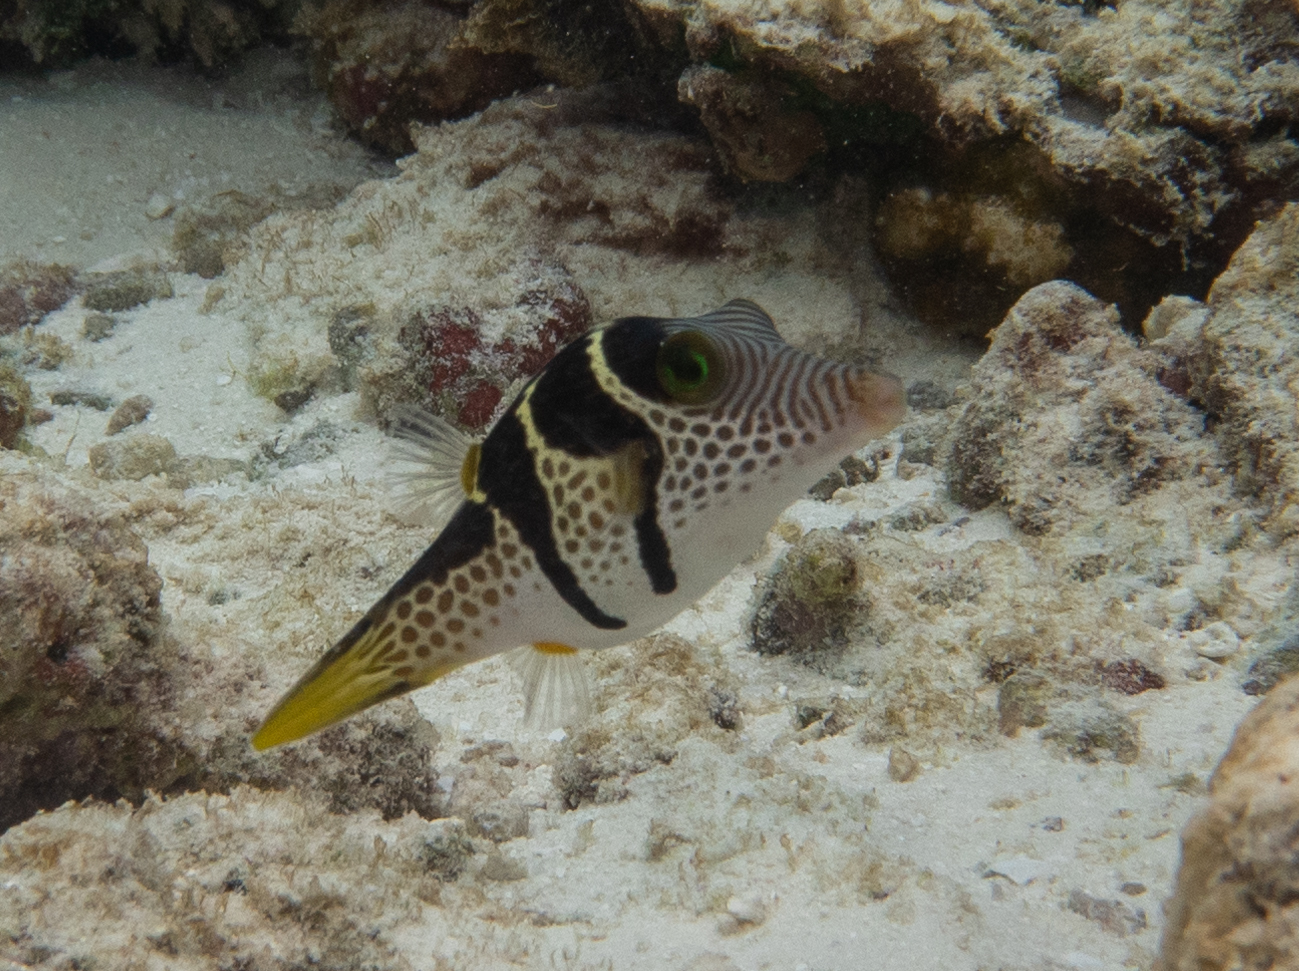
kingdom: Animalia
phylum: Chordata
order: Tetraodontiformes
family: Tetraodontidae
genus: Canthigaster
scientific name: Canthigaster valentini
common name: Banded toby
